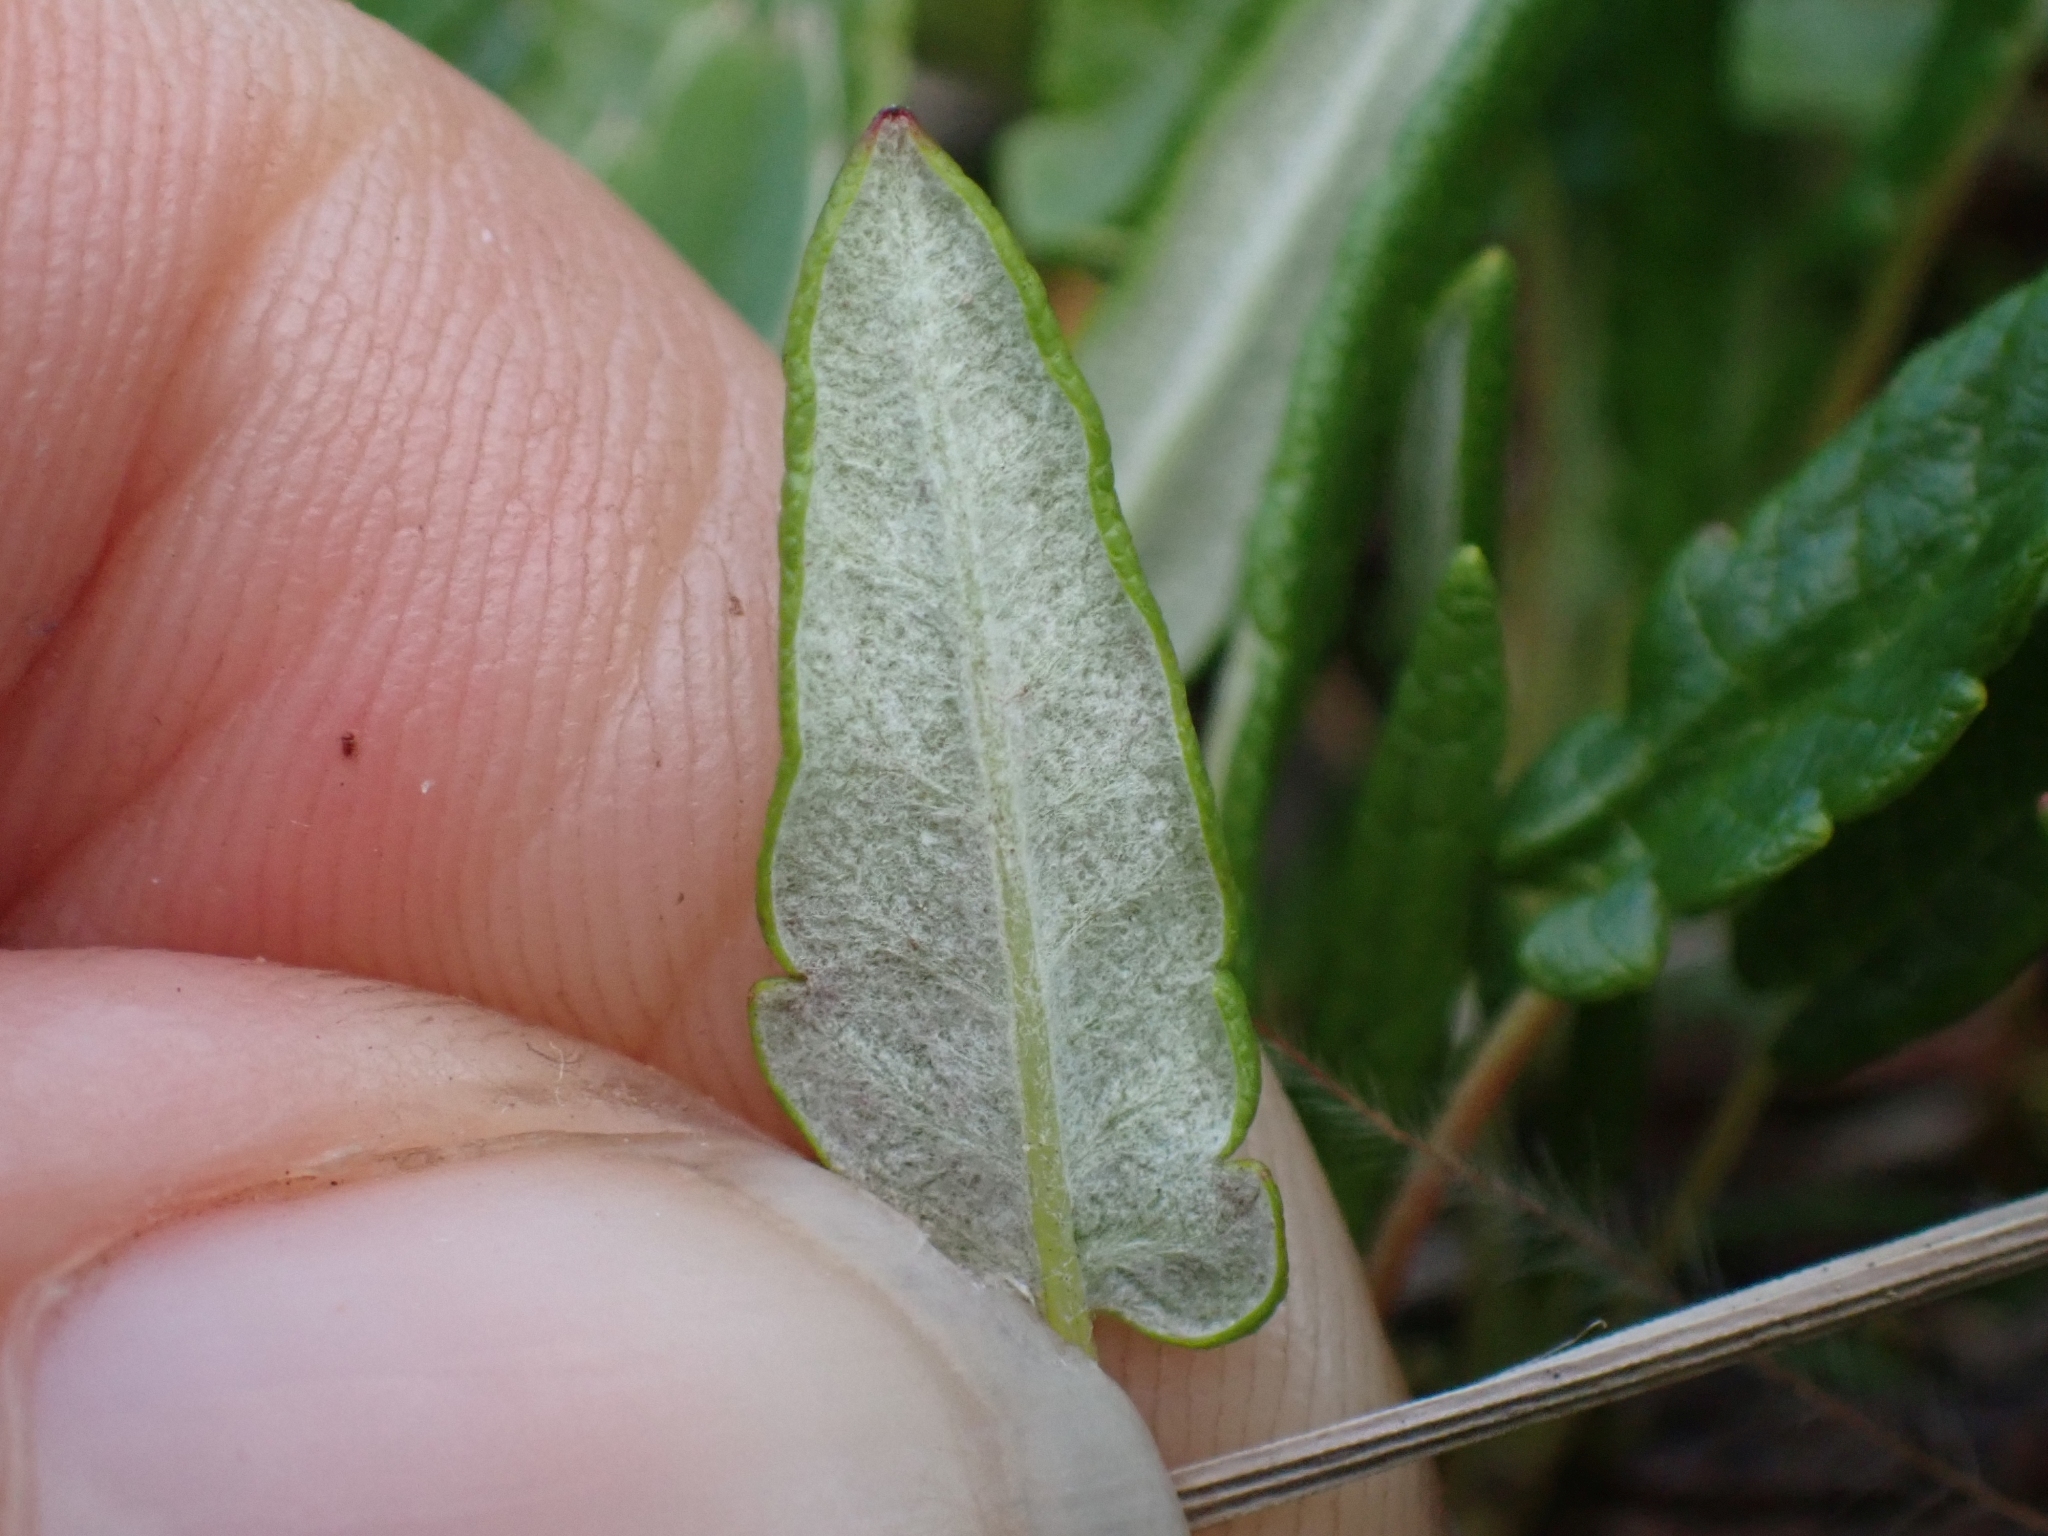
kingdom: Plantae
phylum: Tracheophyta
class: Magnoliopsida
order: Rosales
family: Rosaceae
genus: Dryas
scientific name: Dryas integrifolia
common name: Entire-leaved mountain avens
